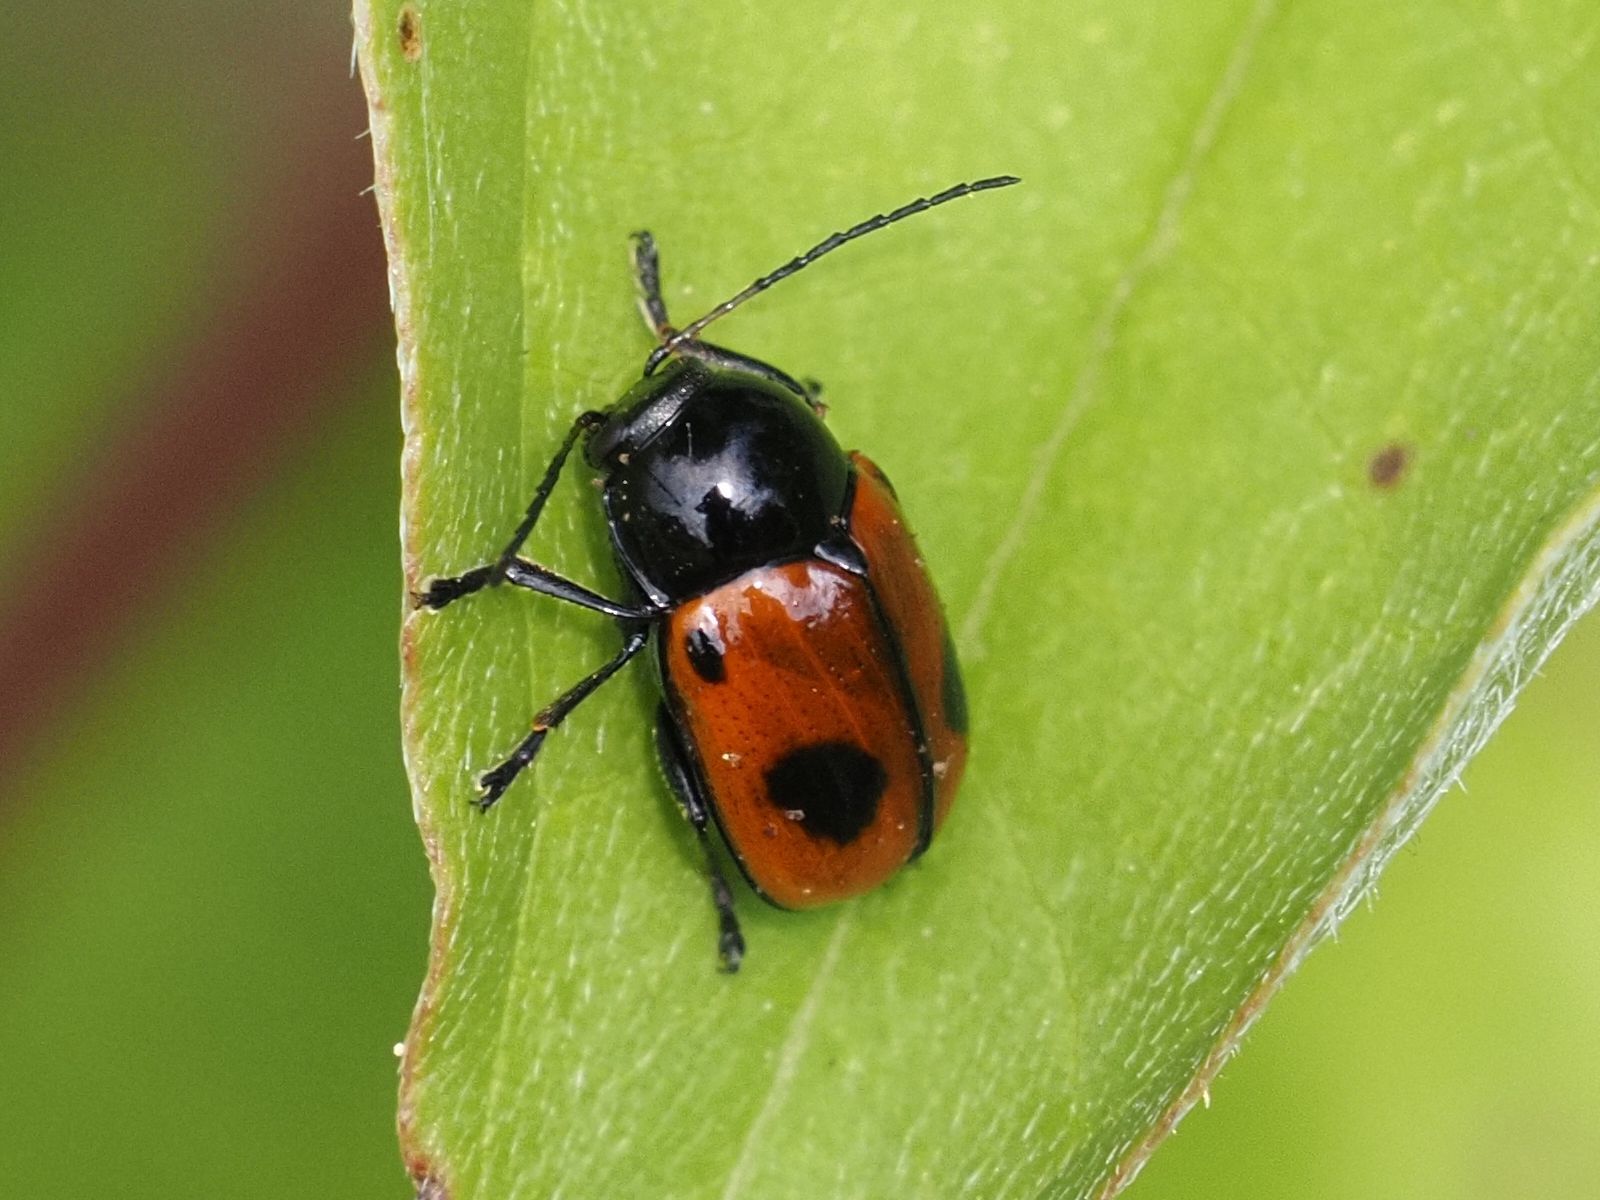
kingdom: Animalia
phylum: Arthropoda
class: Insecta
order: Coleoptera
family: Chrysomelidae
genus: Chiridopsis
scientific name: Chiridopsis bipunctata
